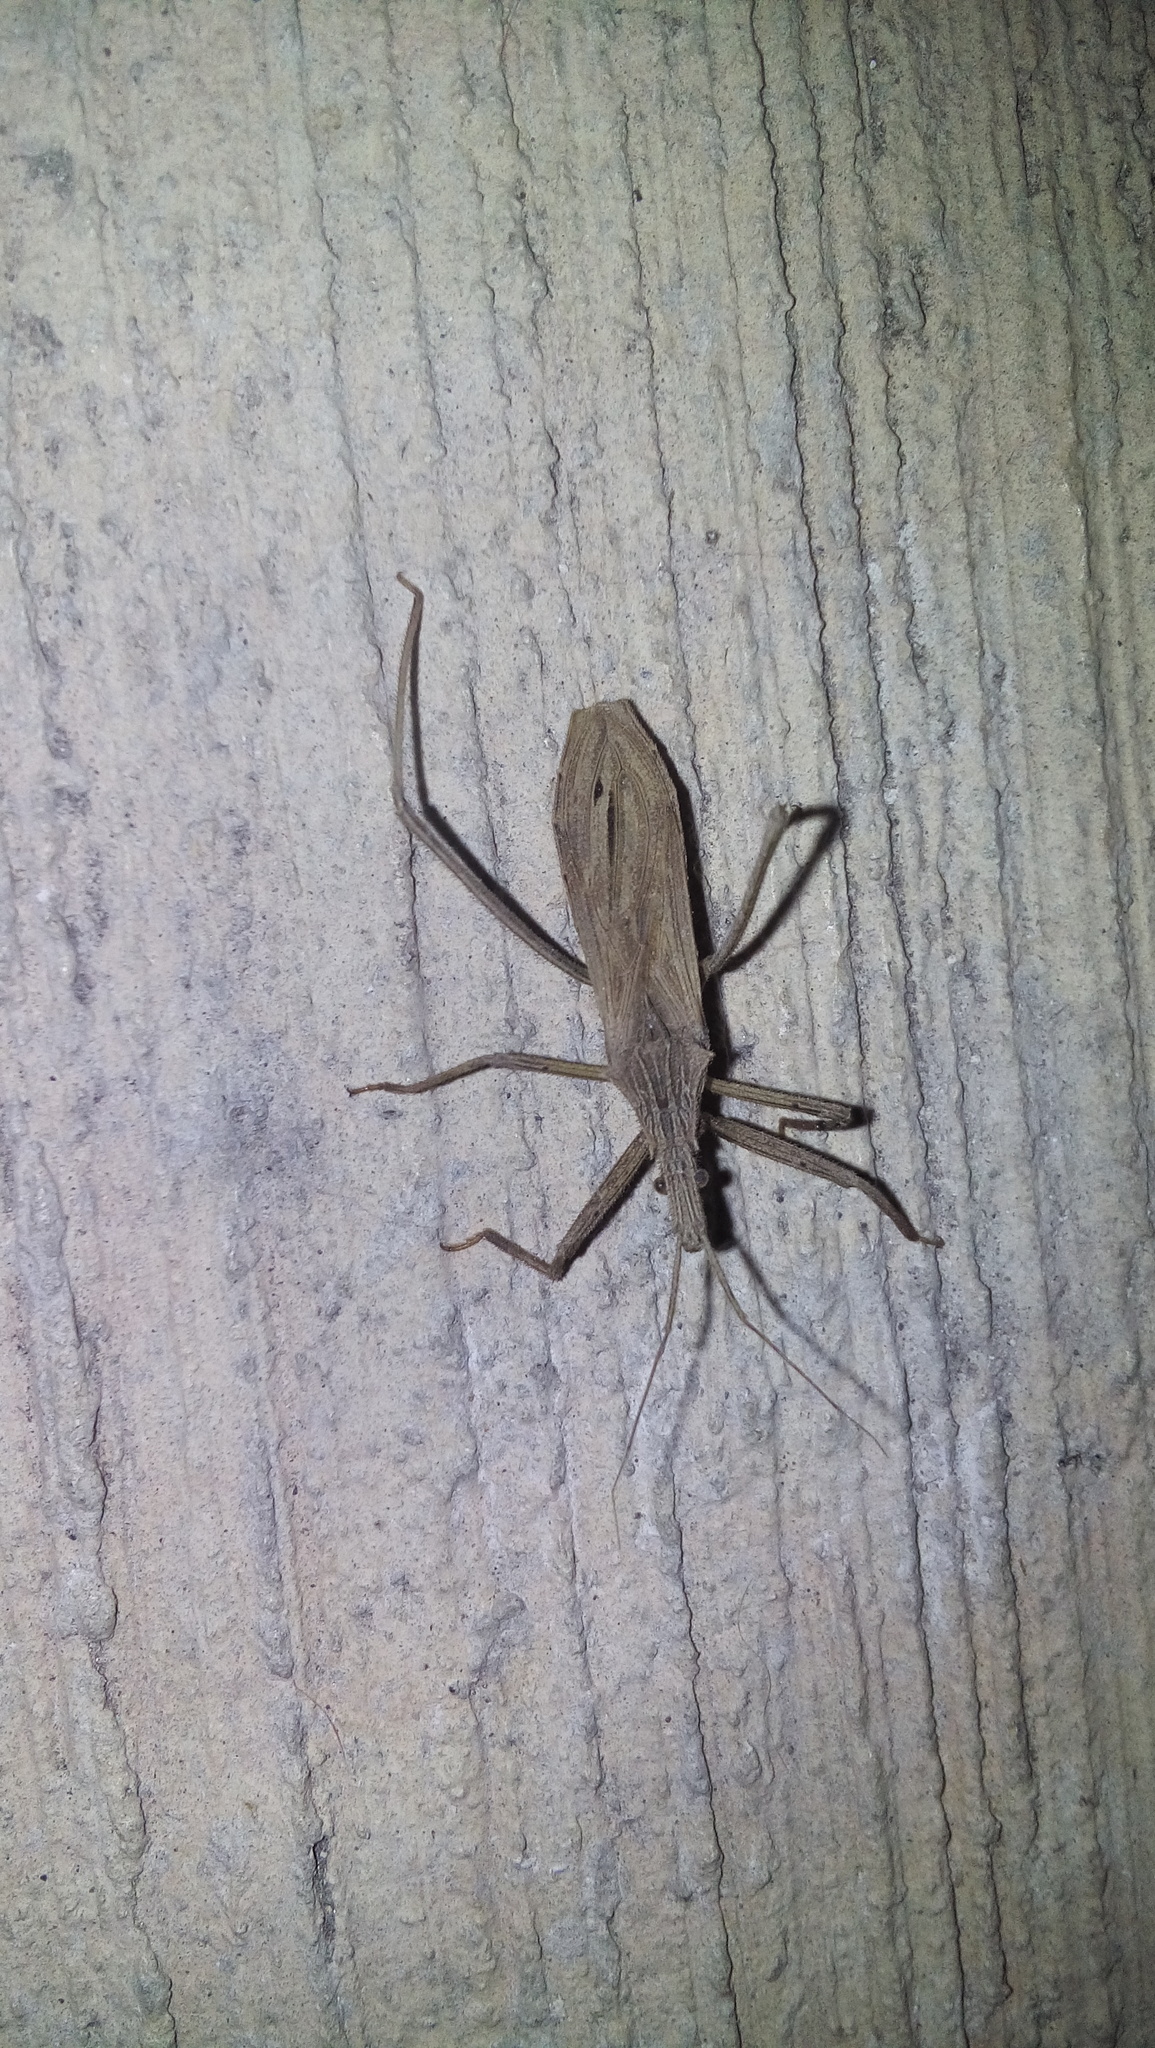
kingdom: Animalia
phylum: Arthropoda
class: Insecta
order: Hemiptera
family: Reduviidae
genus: Stenopoda
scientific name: Stenopoda spinulosa
